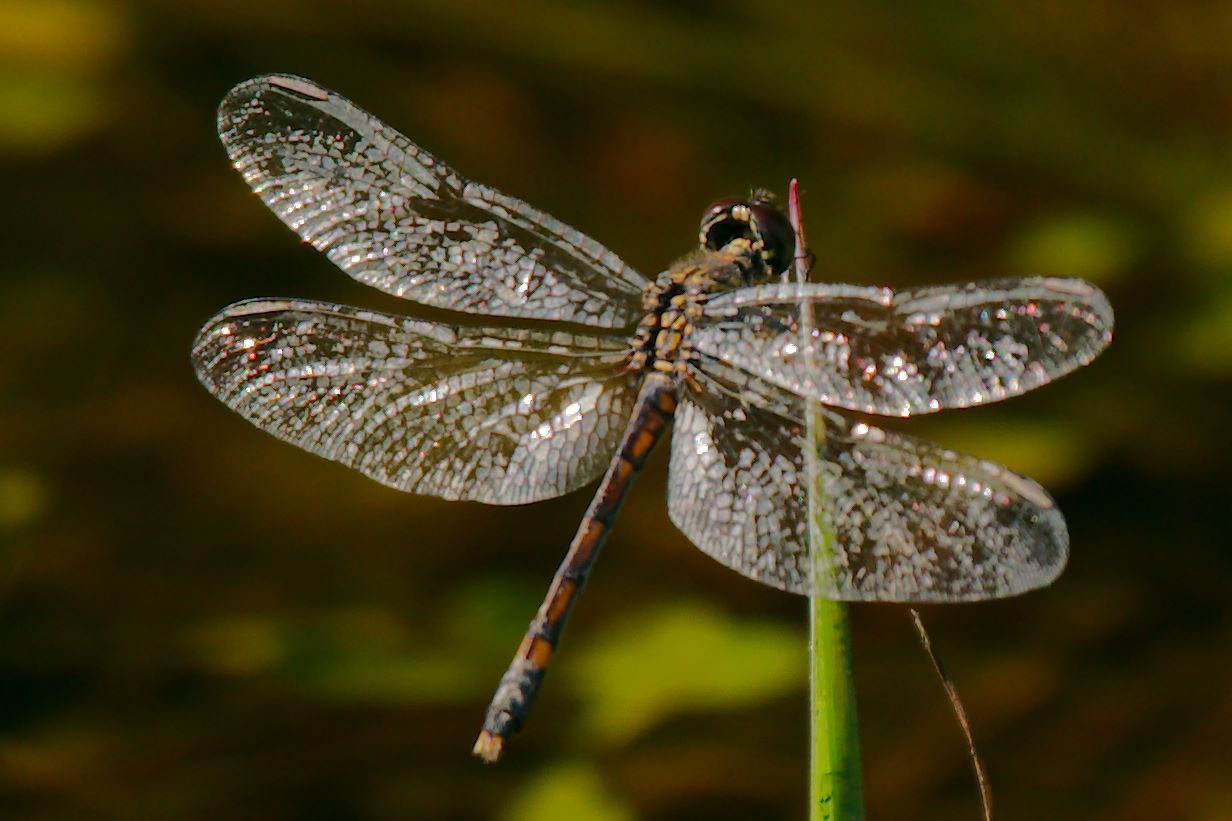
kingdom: Animalia
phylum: Arthropoda
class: Insecta
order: Odonata
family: Libellulidae
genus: Erythrodiplax
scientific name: Erythrodiplax berenice
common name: Seaside dragonlet
